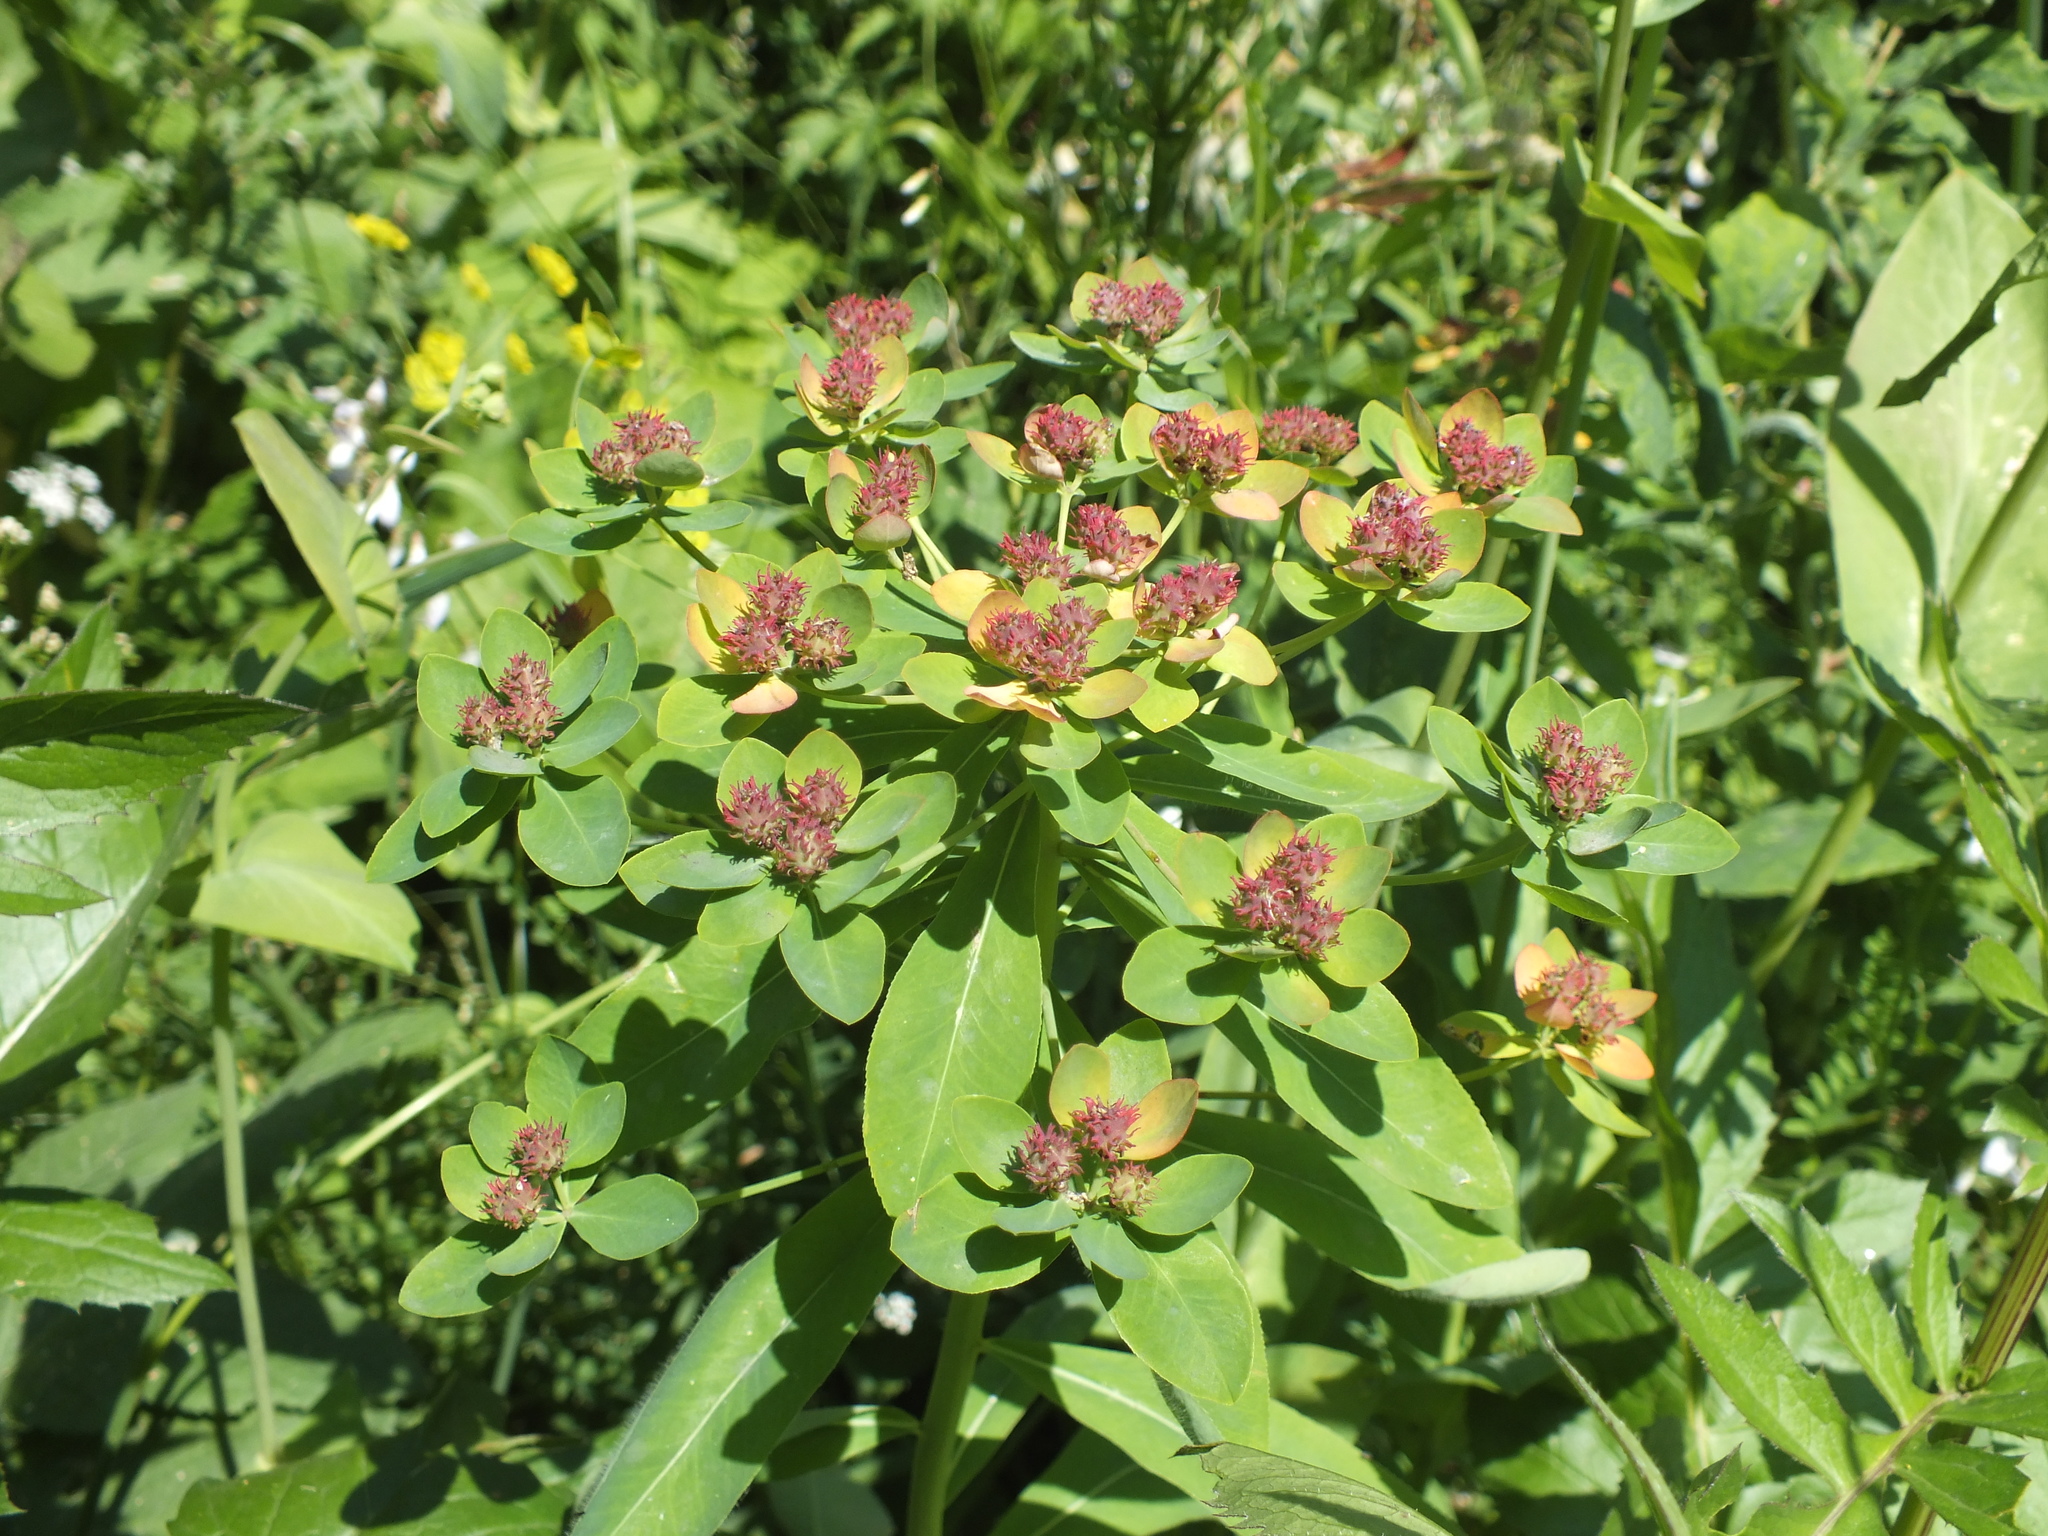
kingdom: Plantae
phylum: Tracheophyta
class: Magnoliopsida
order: Malpighiales
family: Euphorbiaceae
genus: Euphorbia
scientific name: Euphorbia pilosa
